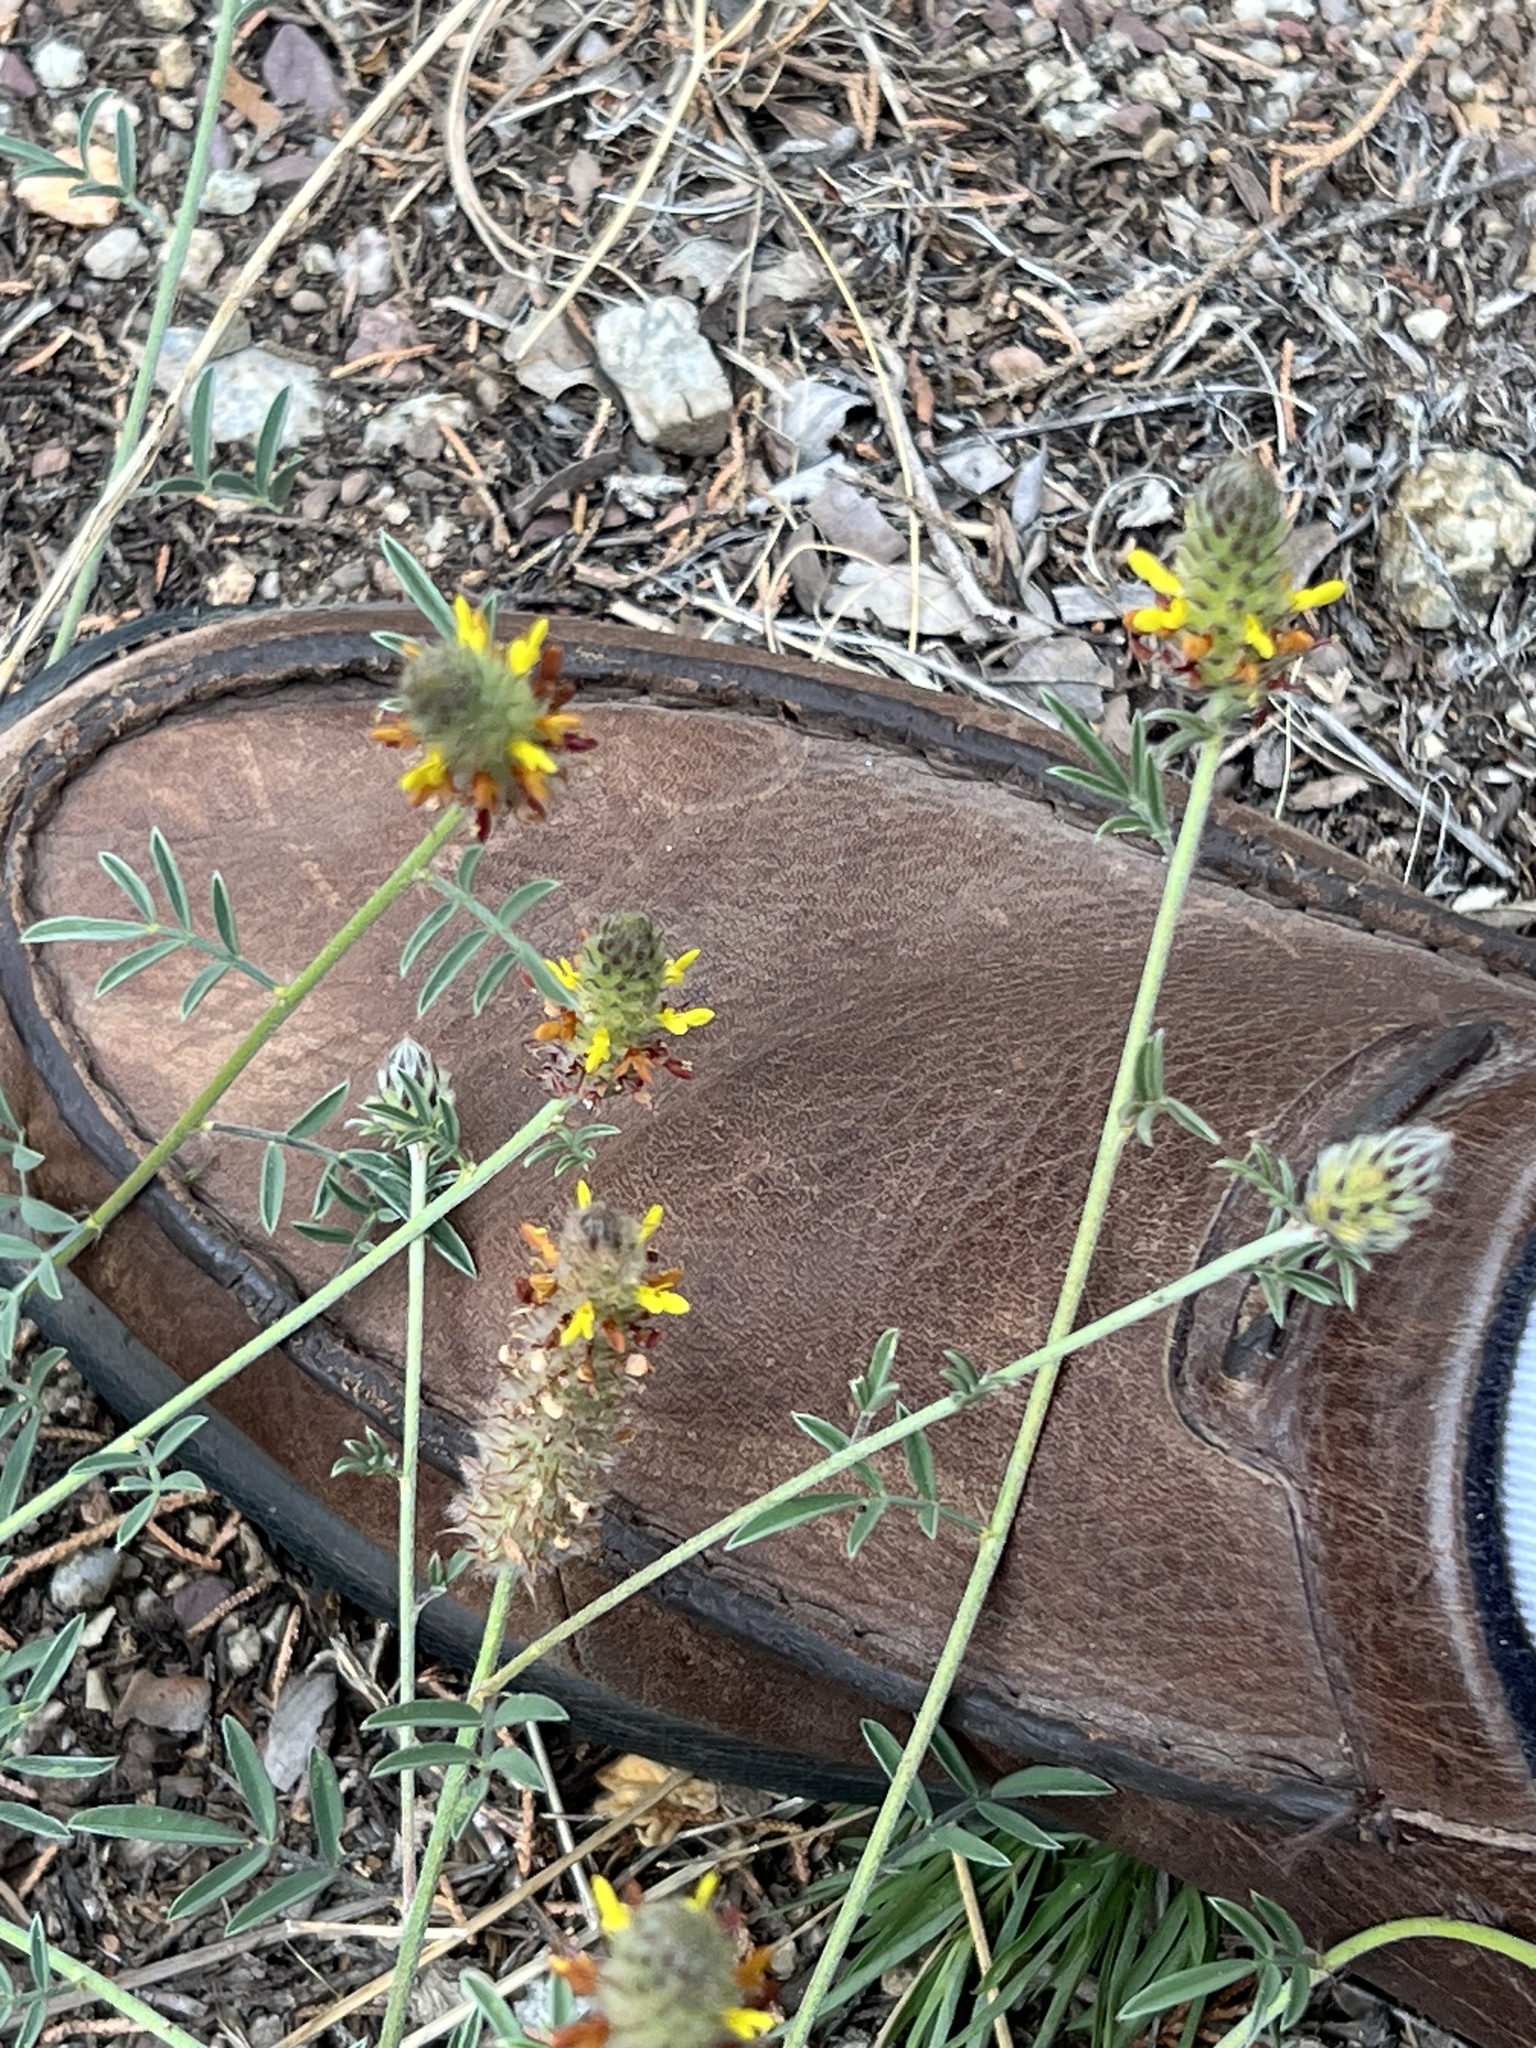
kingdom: Plantae
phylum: Tracheophyta
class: Magnoliopsida
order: Fabales
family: Fabaceae
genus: Dalea
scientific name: Dalea nana
